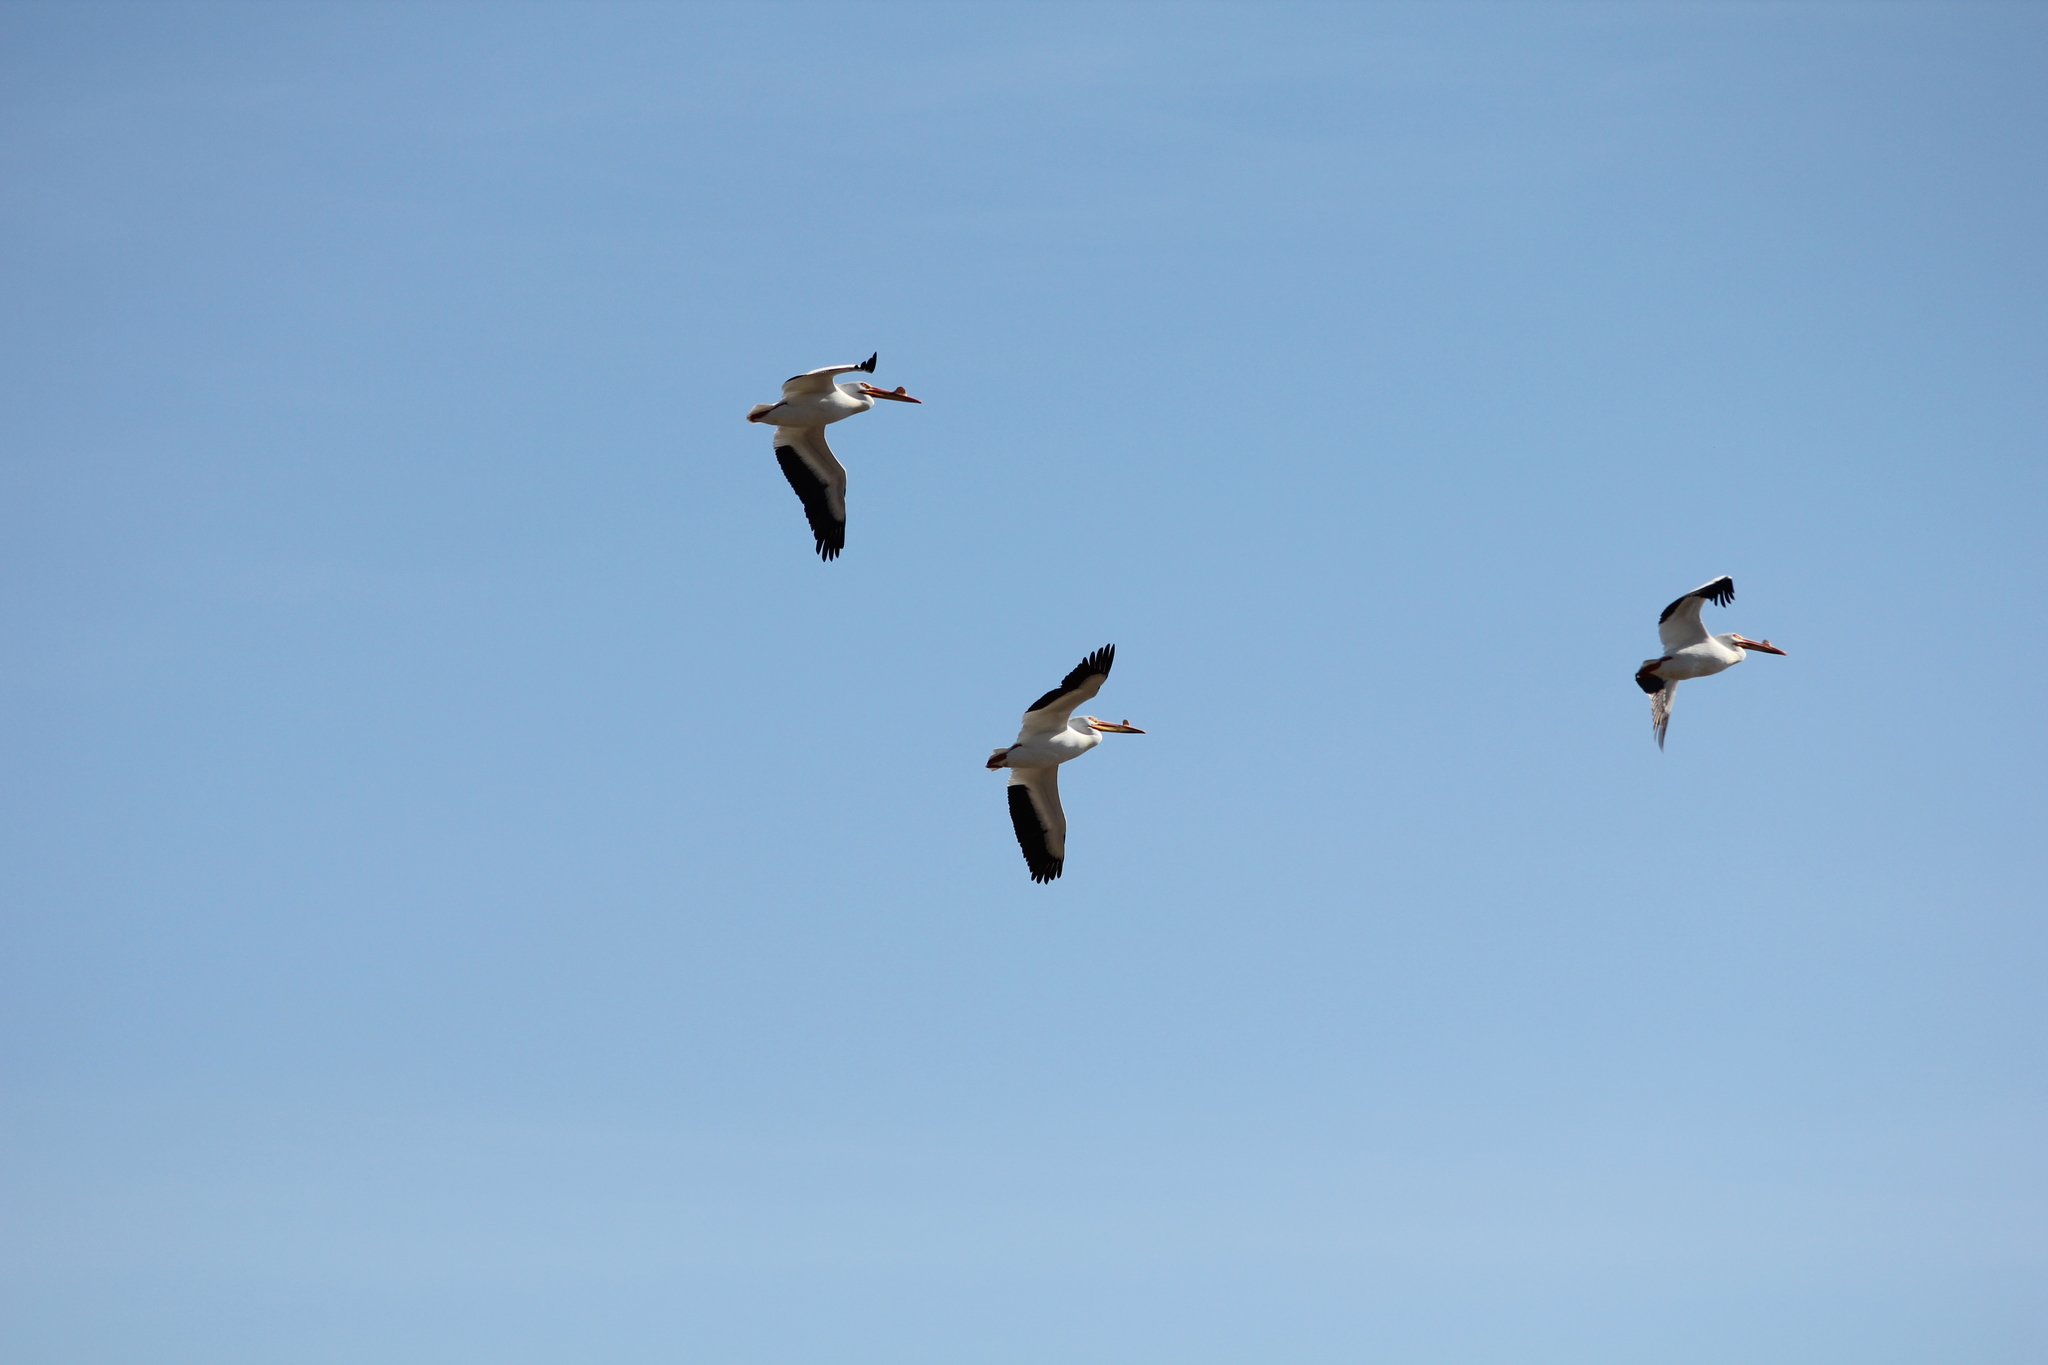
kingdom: Animalia
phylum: Chordata
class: Aves
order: Pelecaniformes
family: Pelecanidae
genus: Pelecanus
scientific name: Pelecanus erythrorhynchos
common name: American white pelican
